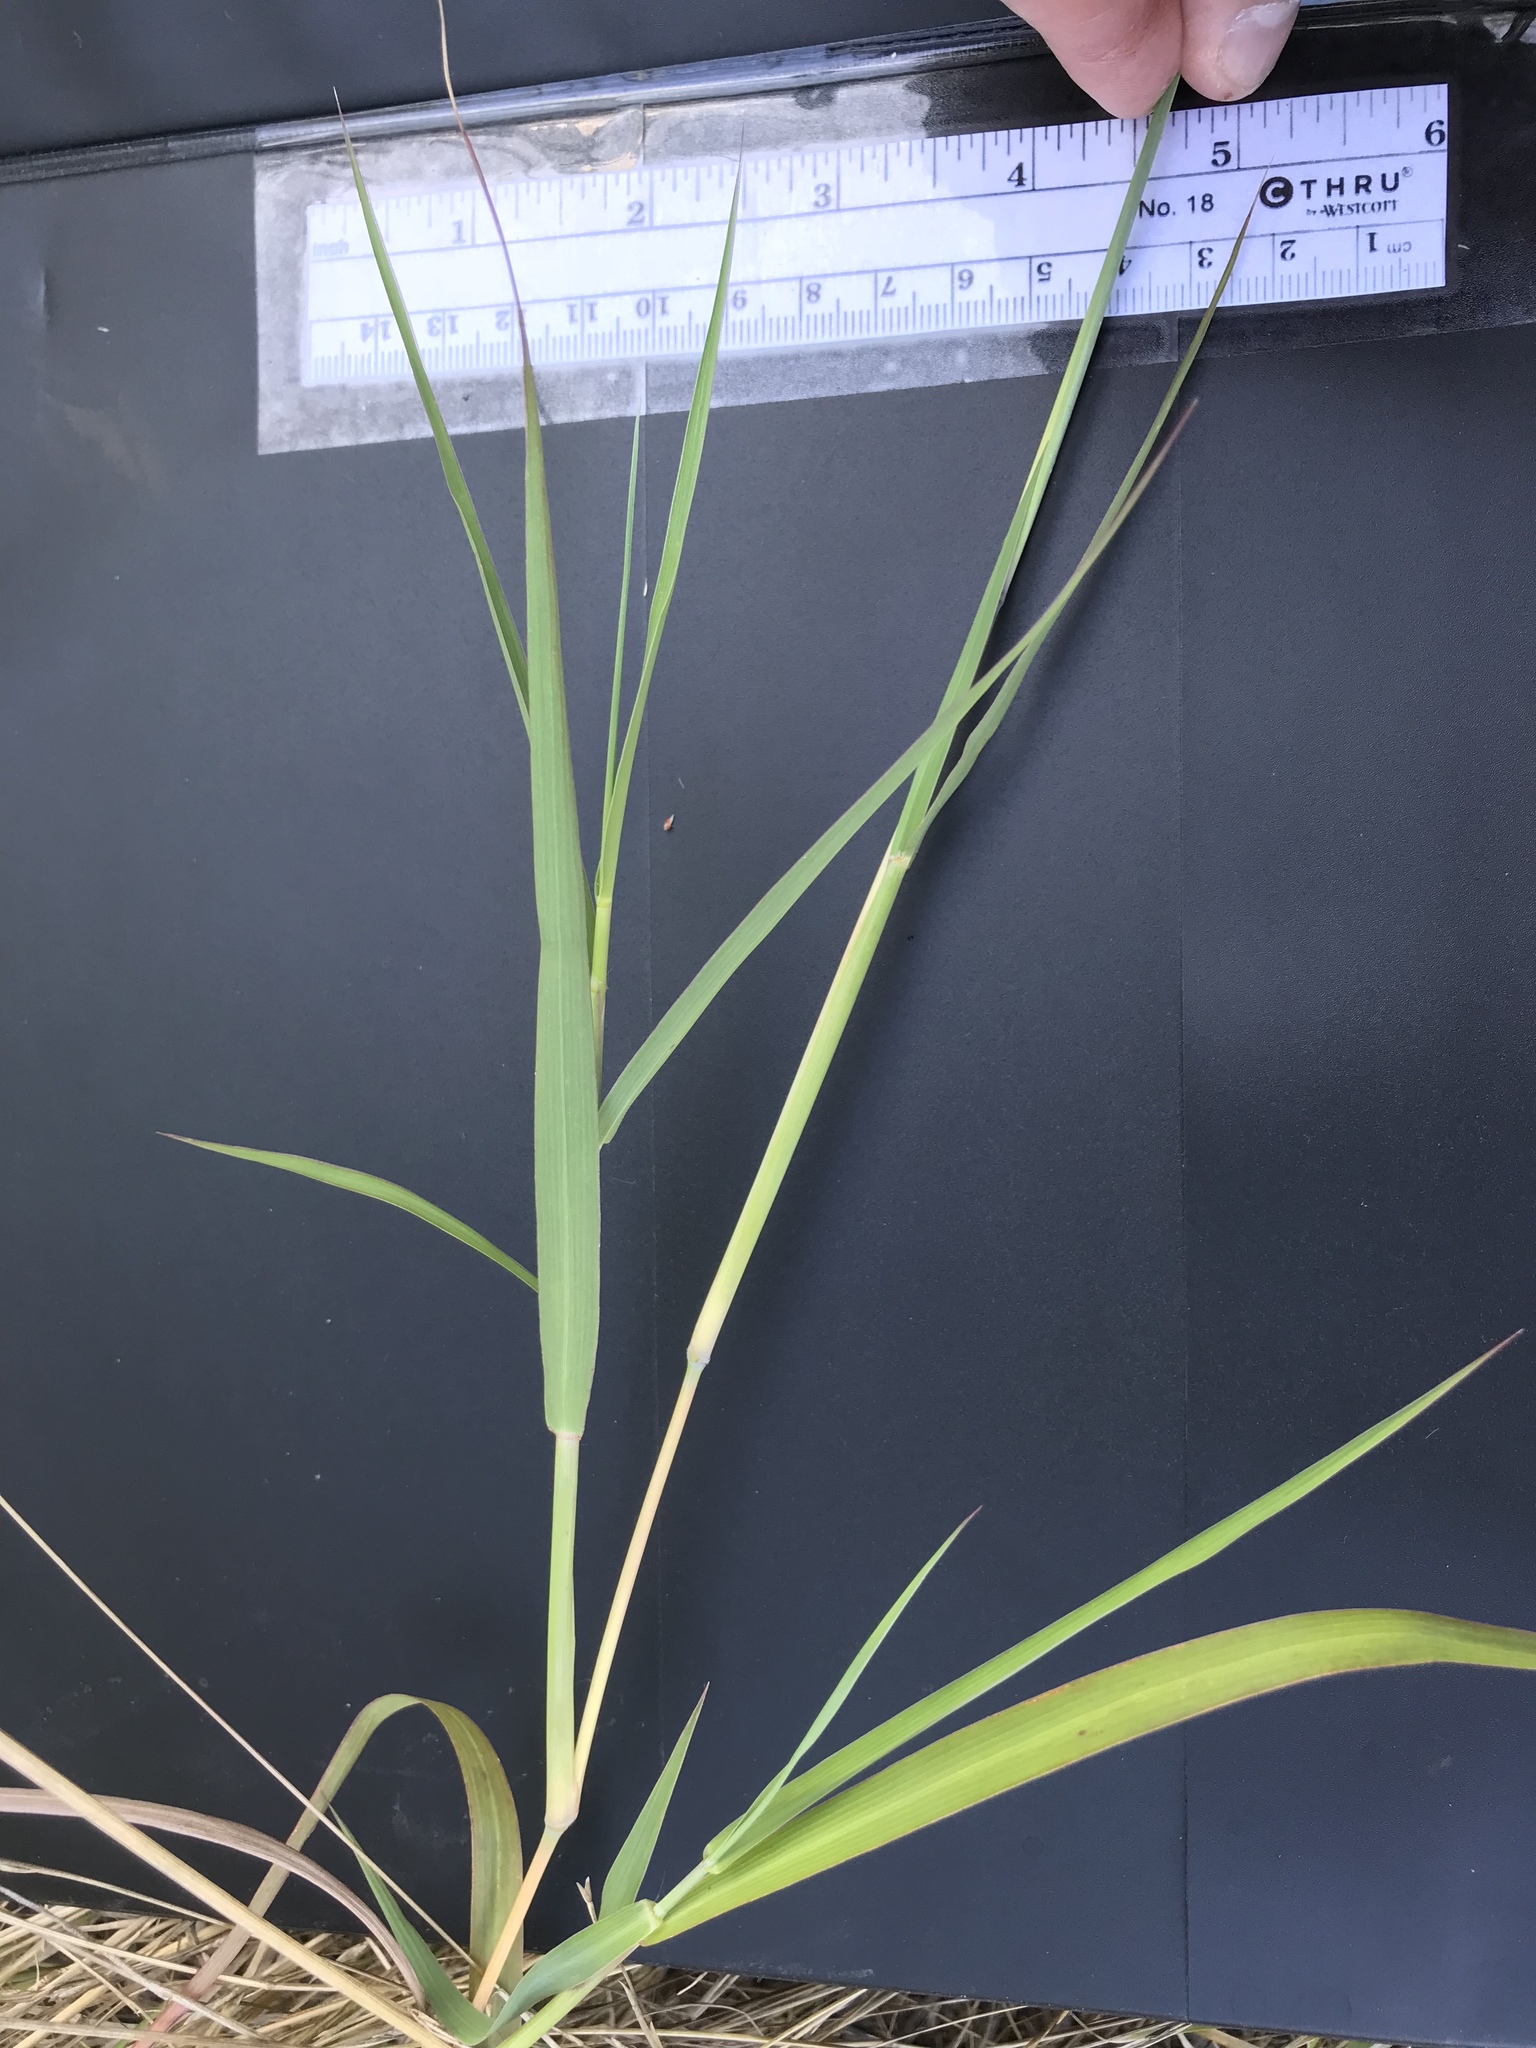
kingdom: Plantae
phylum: Tracheophyta
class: Liliopsida
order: Poales
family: Poaceae
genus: Bothriochloa
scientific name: Bothriochloa torreyana
